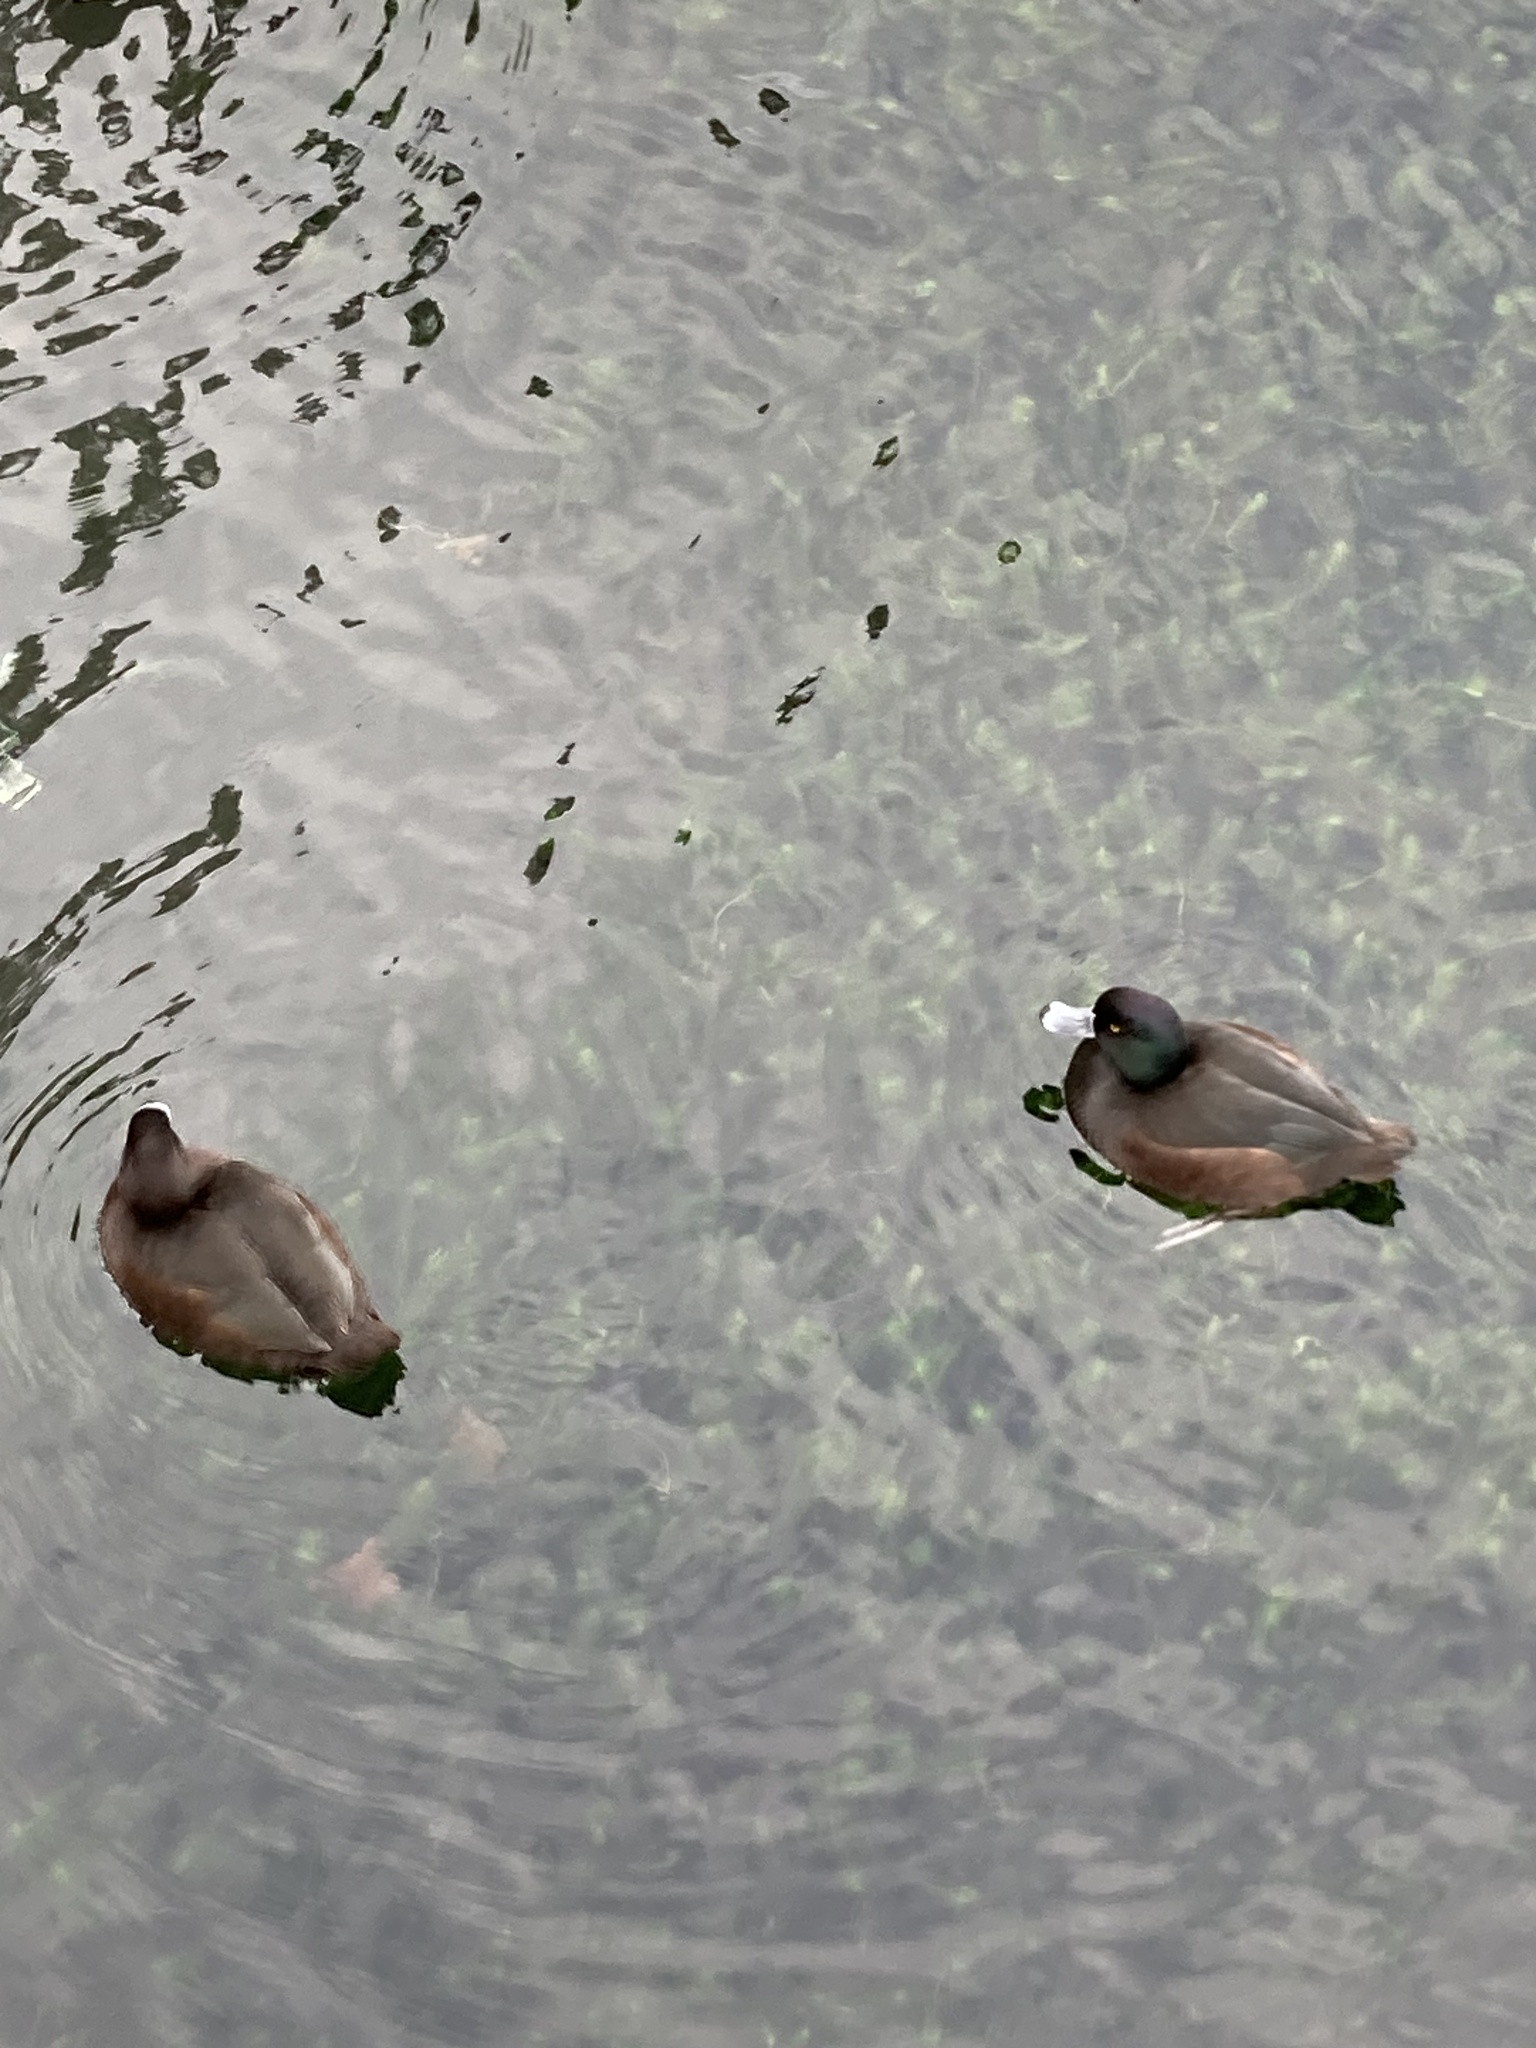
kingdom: Animalia
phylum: Chordata
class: Aves
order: Anseriformes
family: Anatidae
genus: Aythya
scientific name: Aythya novaeseelandiae
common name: New zealand scaup
